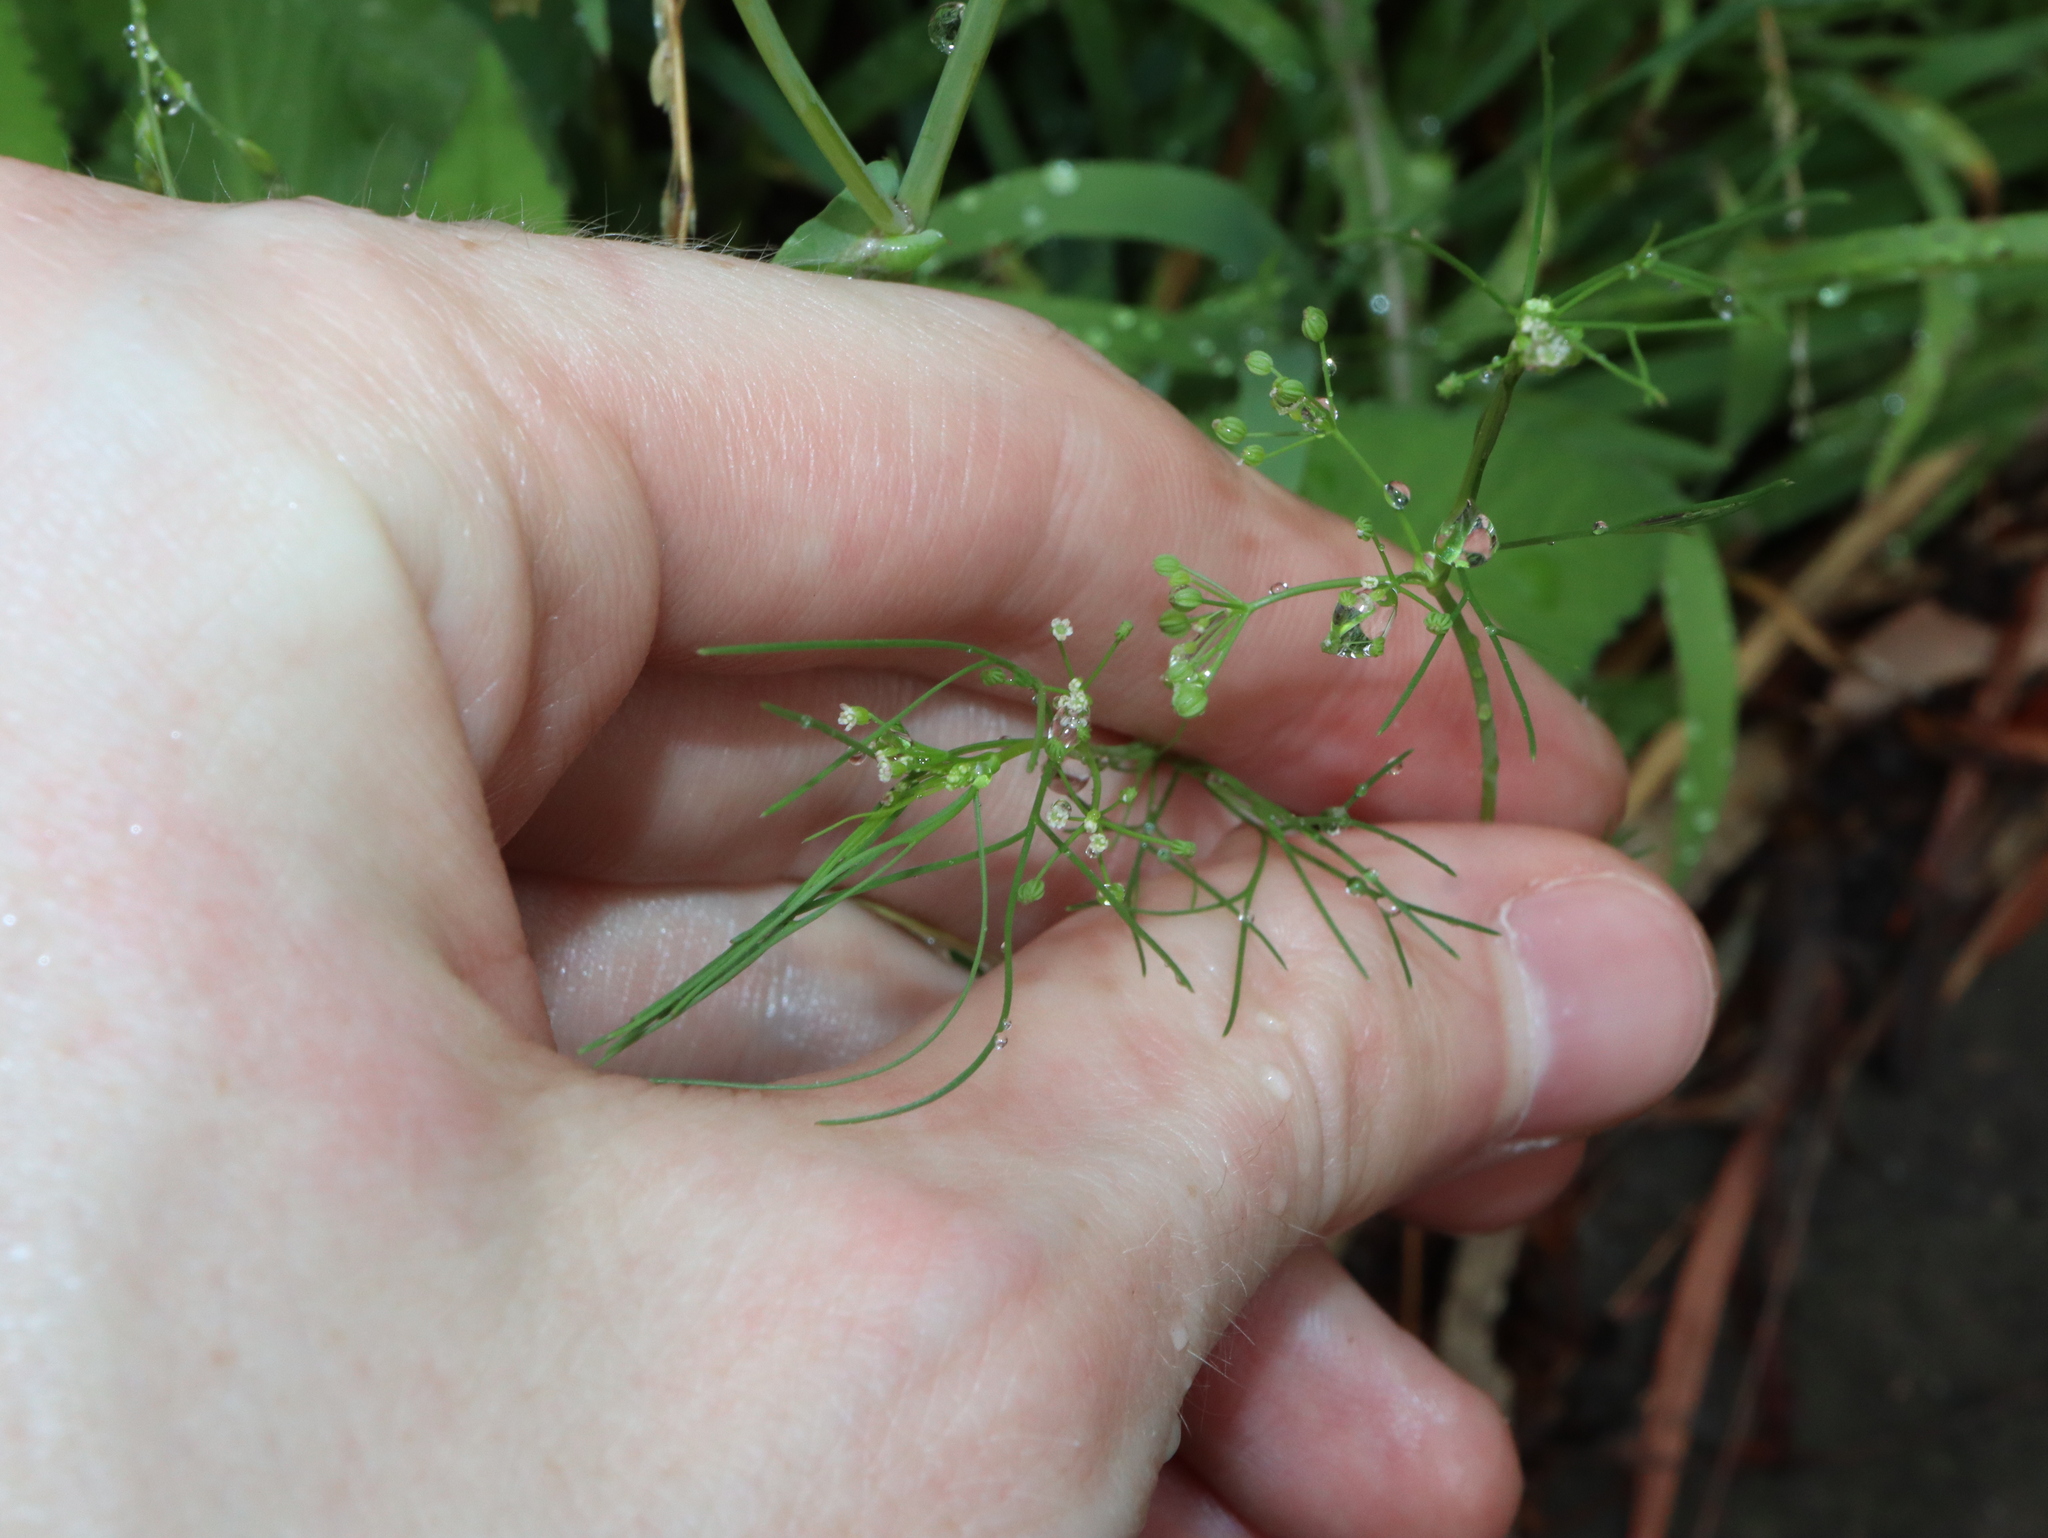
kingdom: Plantae
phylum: Tracheophyta
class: Magnoliopsida
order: Apiales
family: Apiaceae
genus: Cyclospermum
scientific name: Cyclospermum leptophyllum
